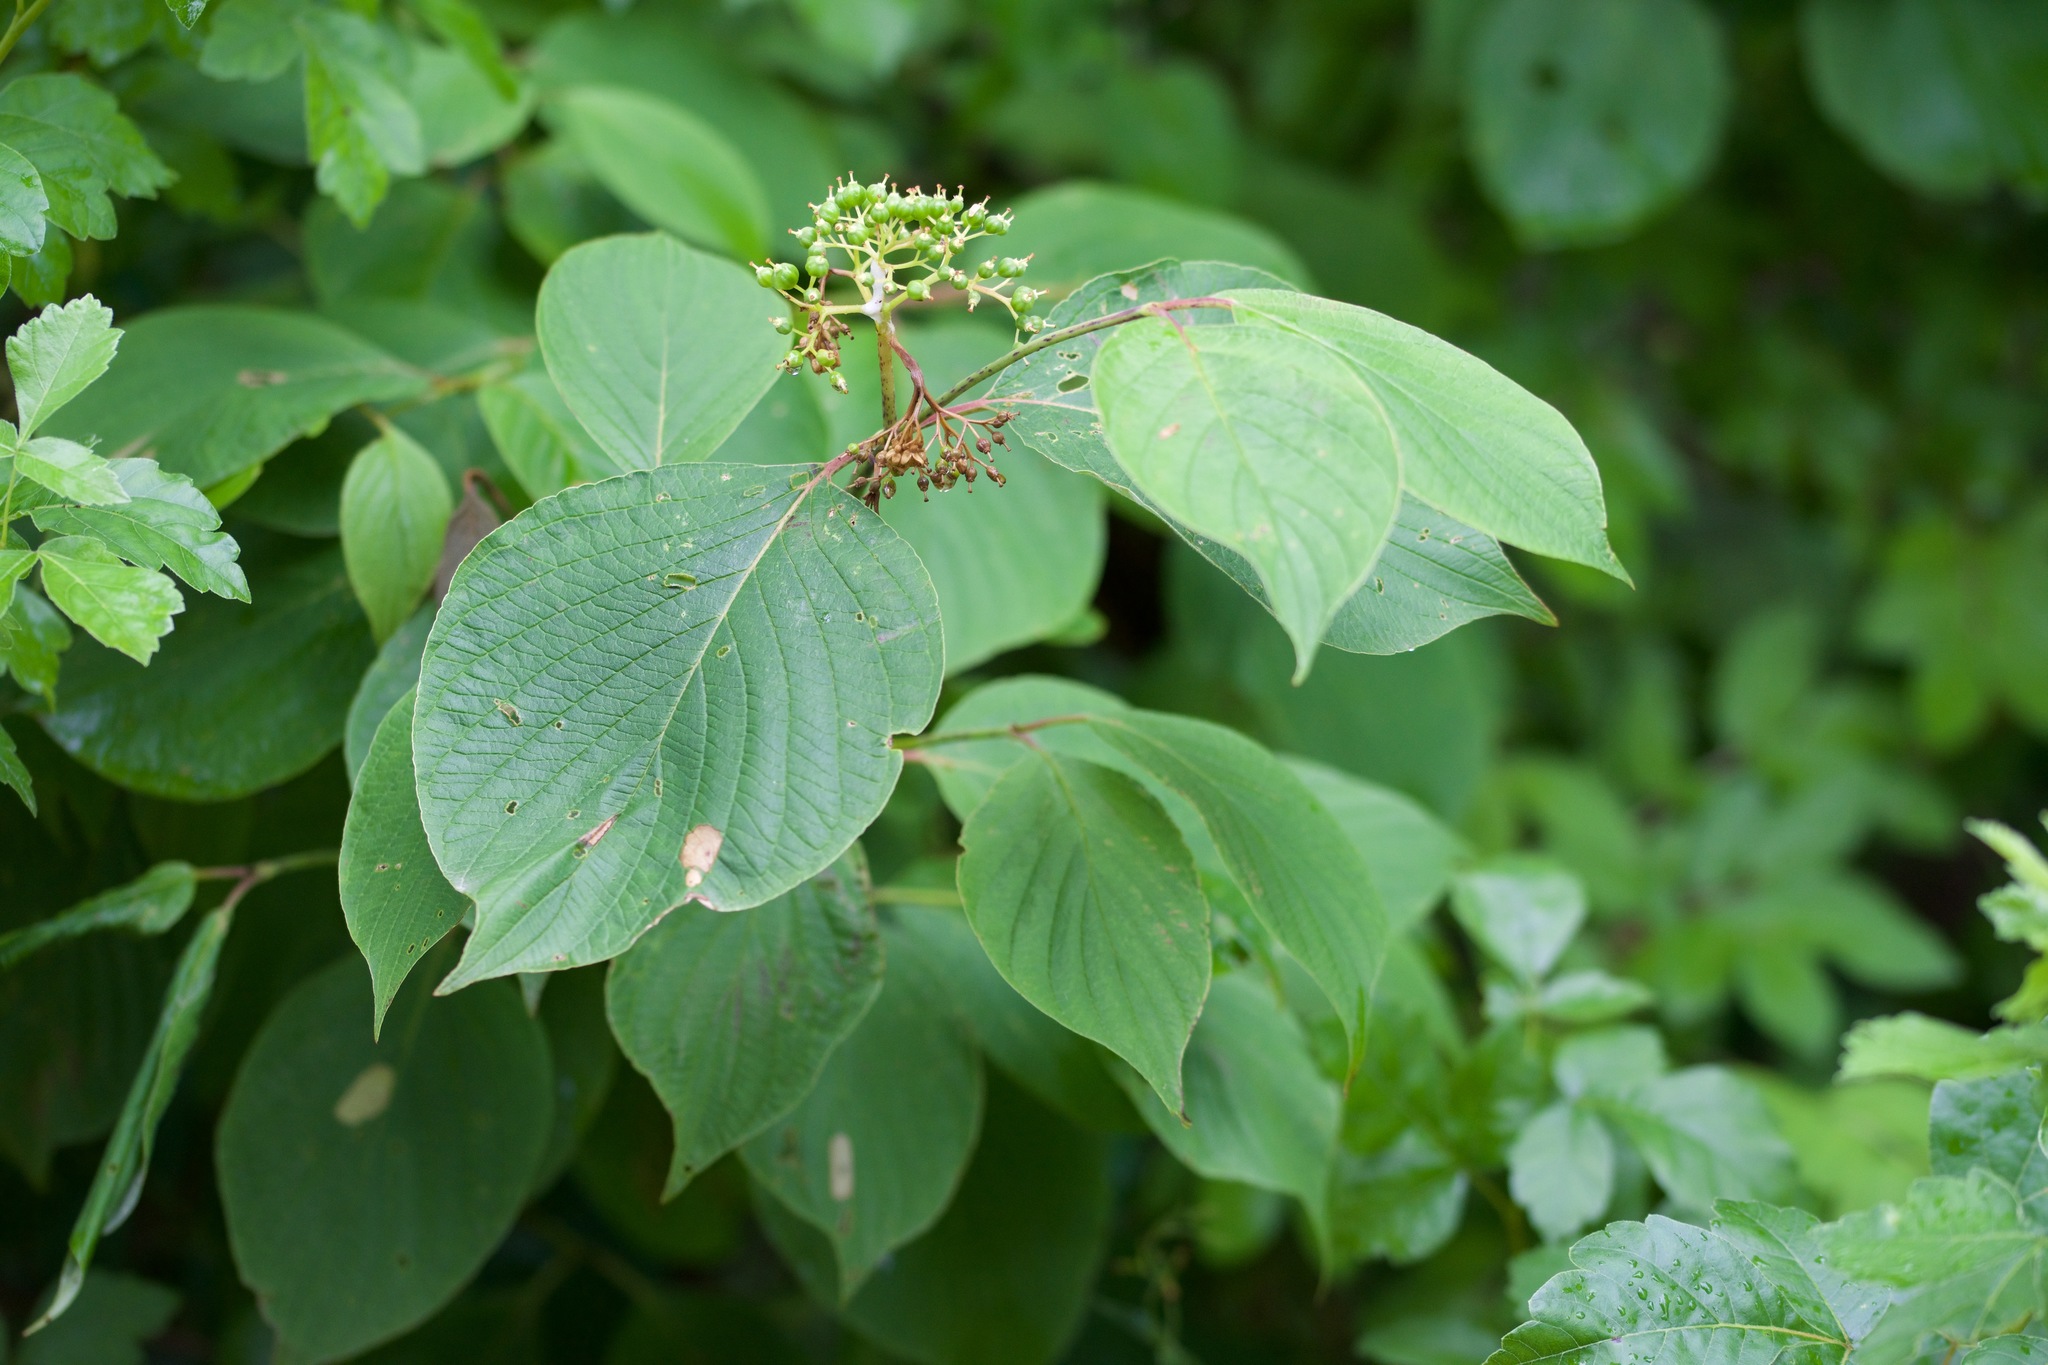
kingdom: Plantae
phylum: Tracheophyta
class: Magnoliopsida
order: Cornales
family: Cornaceae
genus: Cornus
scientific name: Cornus rugosa
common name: Round-leaf dogwood
